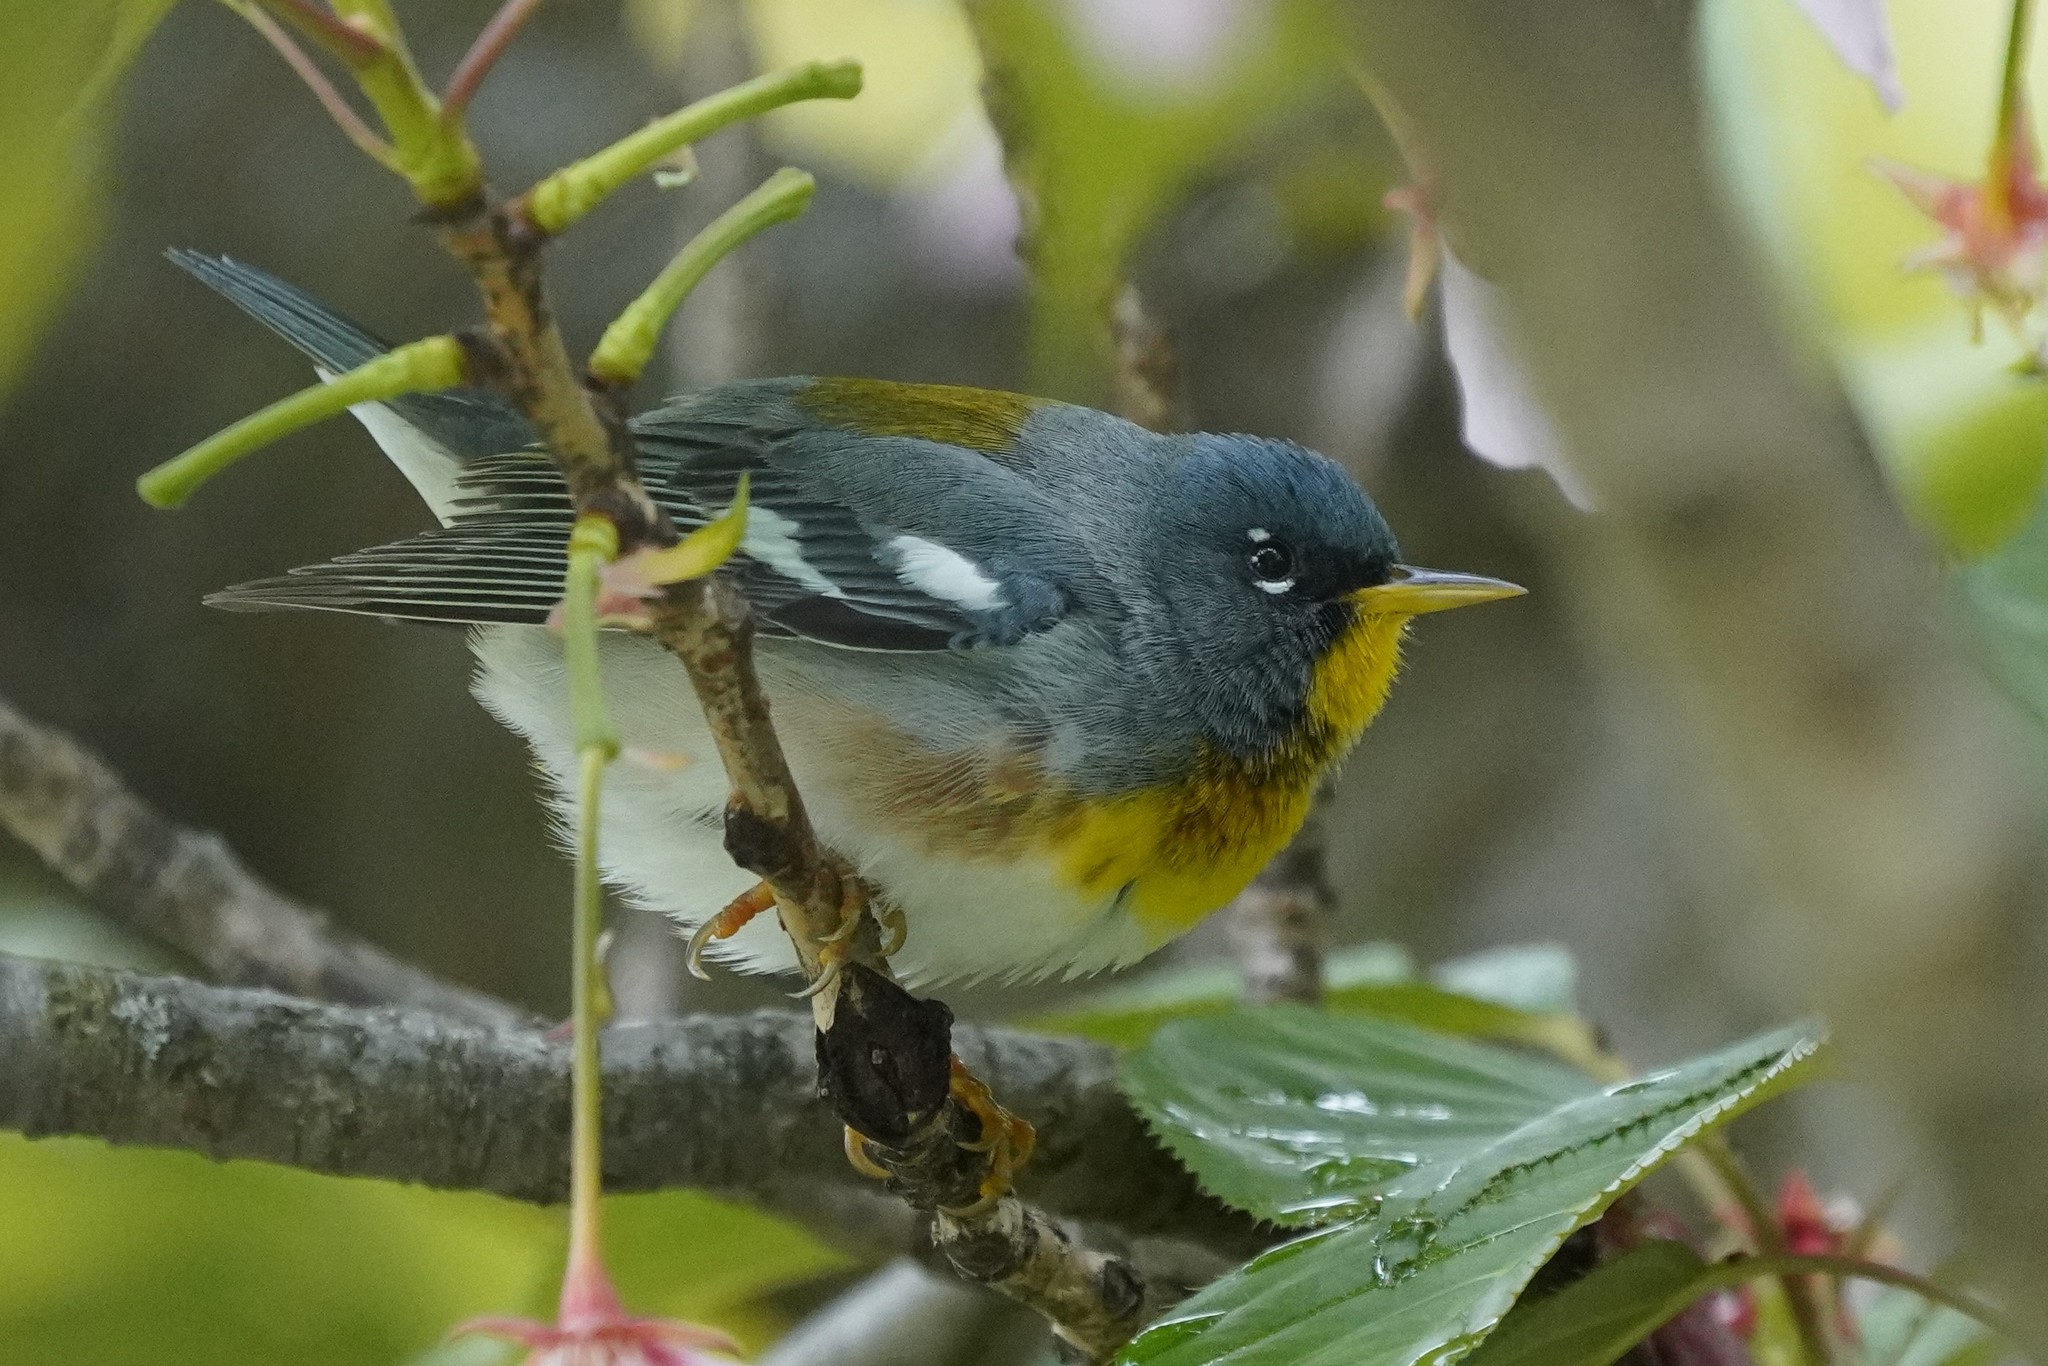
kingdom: Animalia
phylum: Chordata
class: Aves
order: Passeriformes
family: Parulidae
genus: Setophaga
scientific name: Setophaga americana
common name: Northern parula
